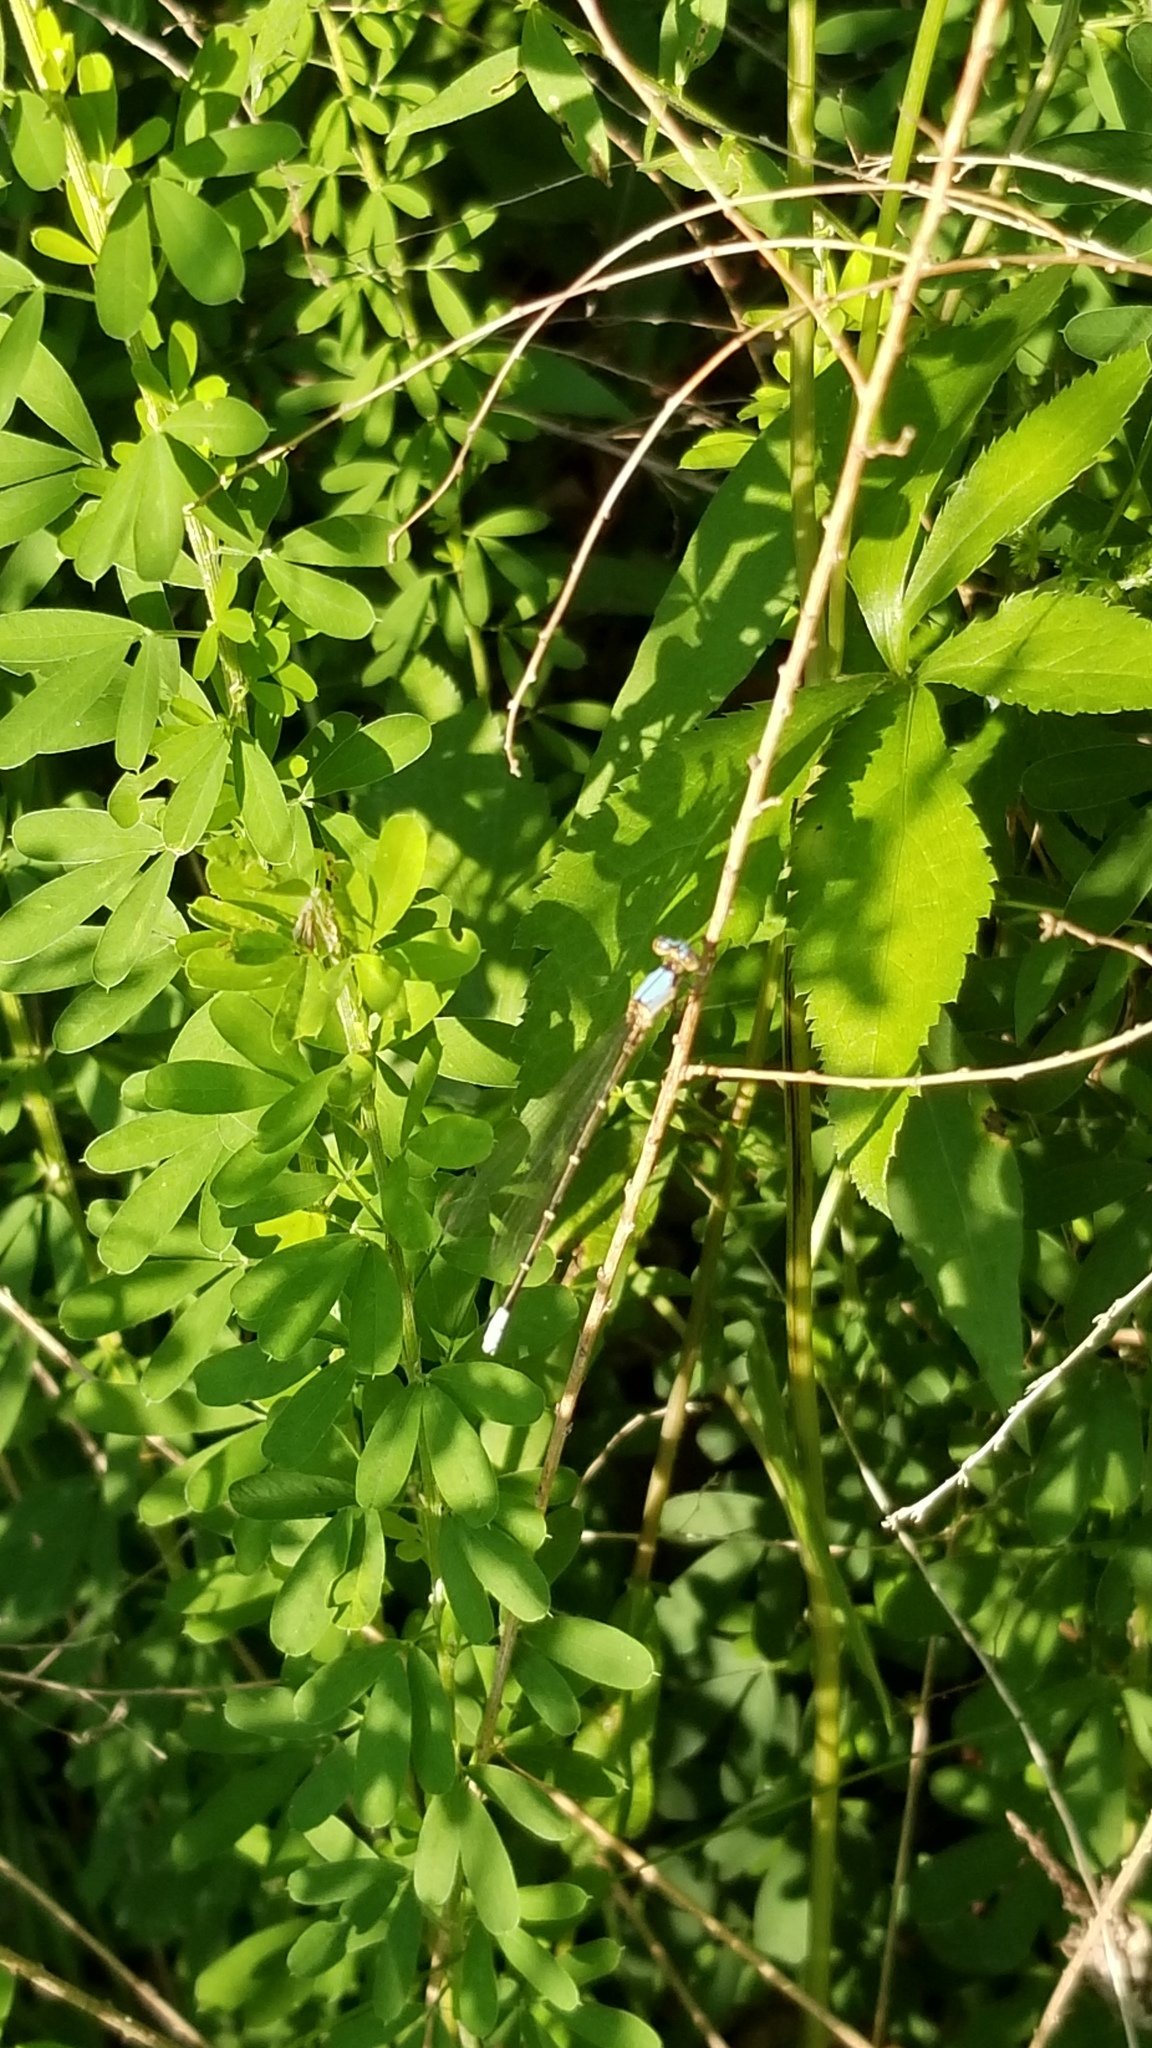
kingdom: Animalia
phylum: Arthropoda
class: Insecta
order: Odonata
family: Coenagrionidae
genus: Argia
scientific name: Argia apicalis
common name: Blue-fronted dancer
